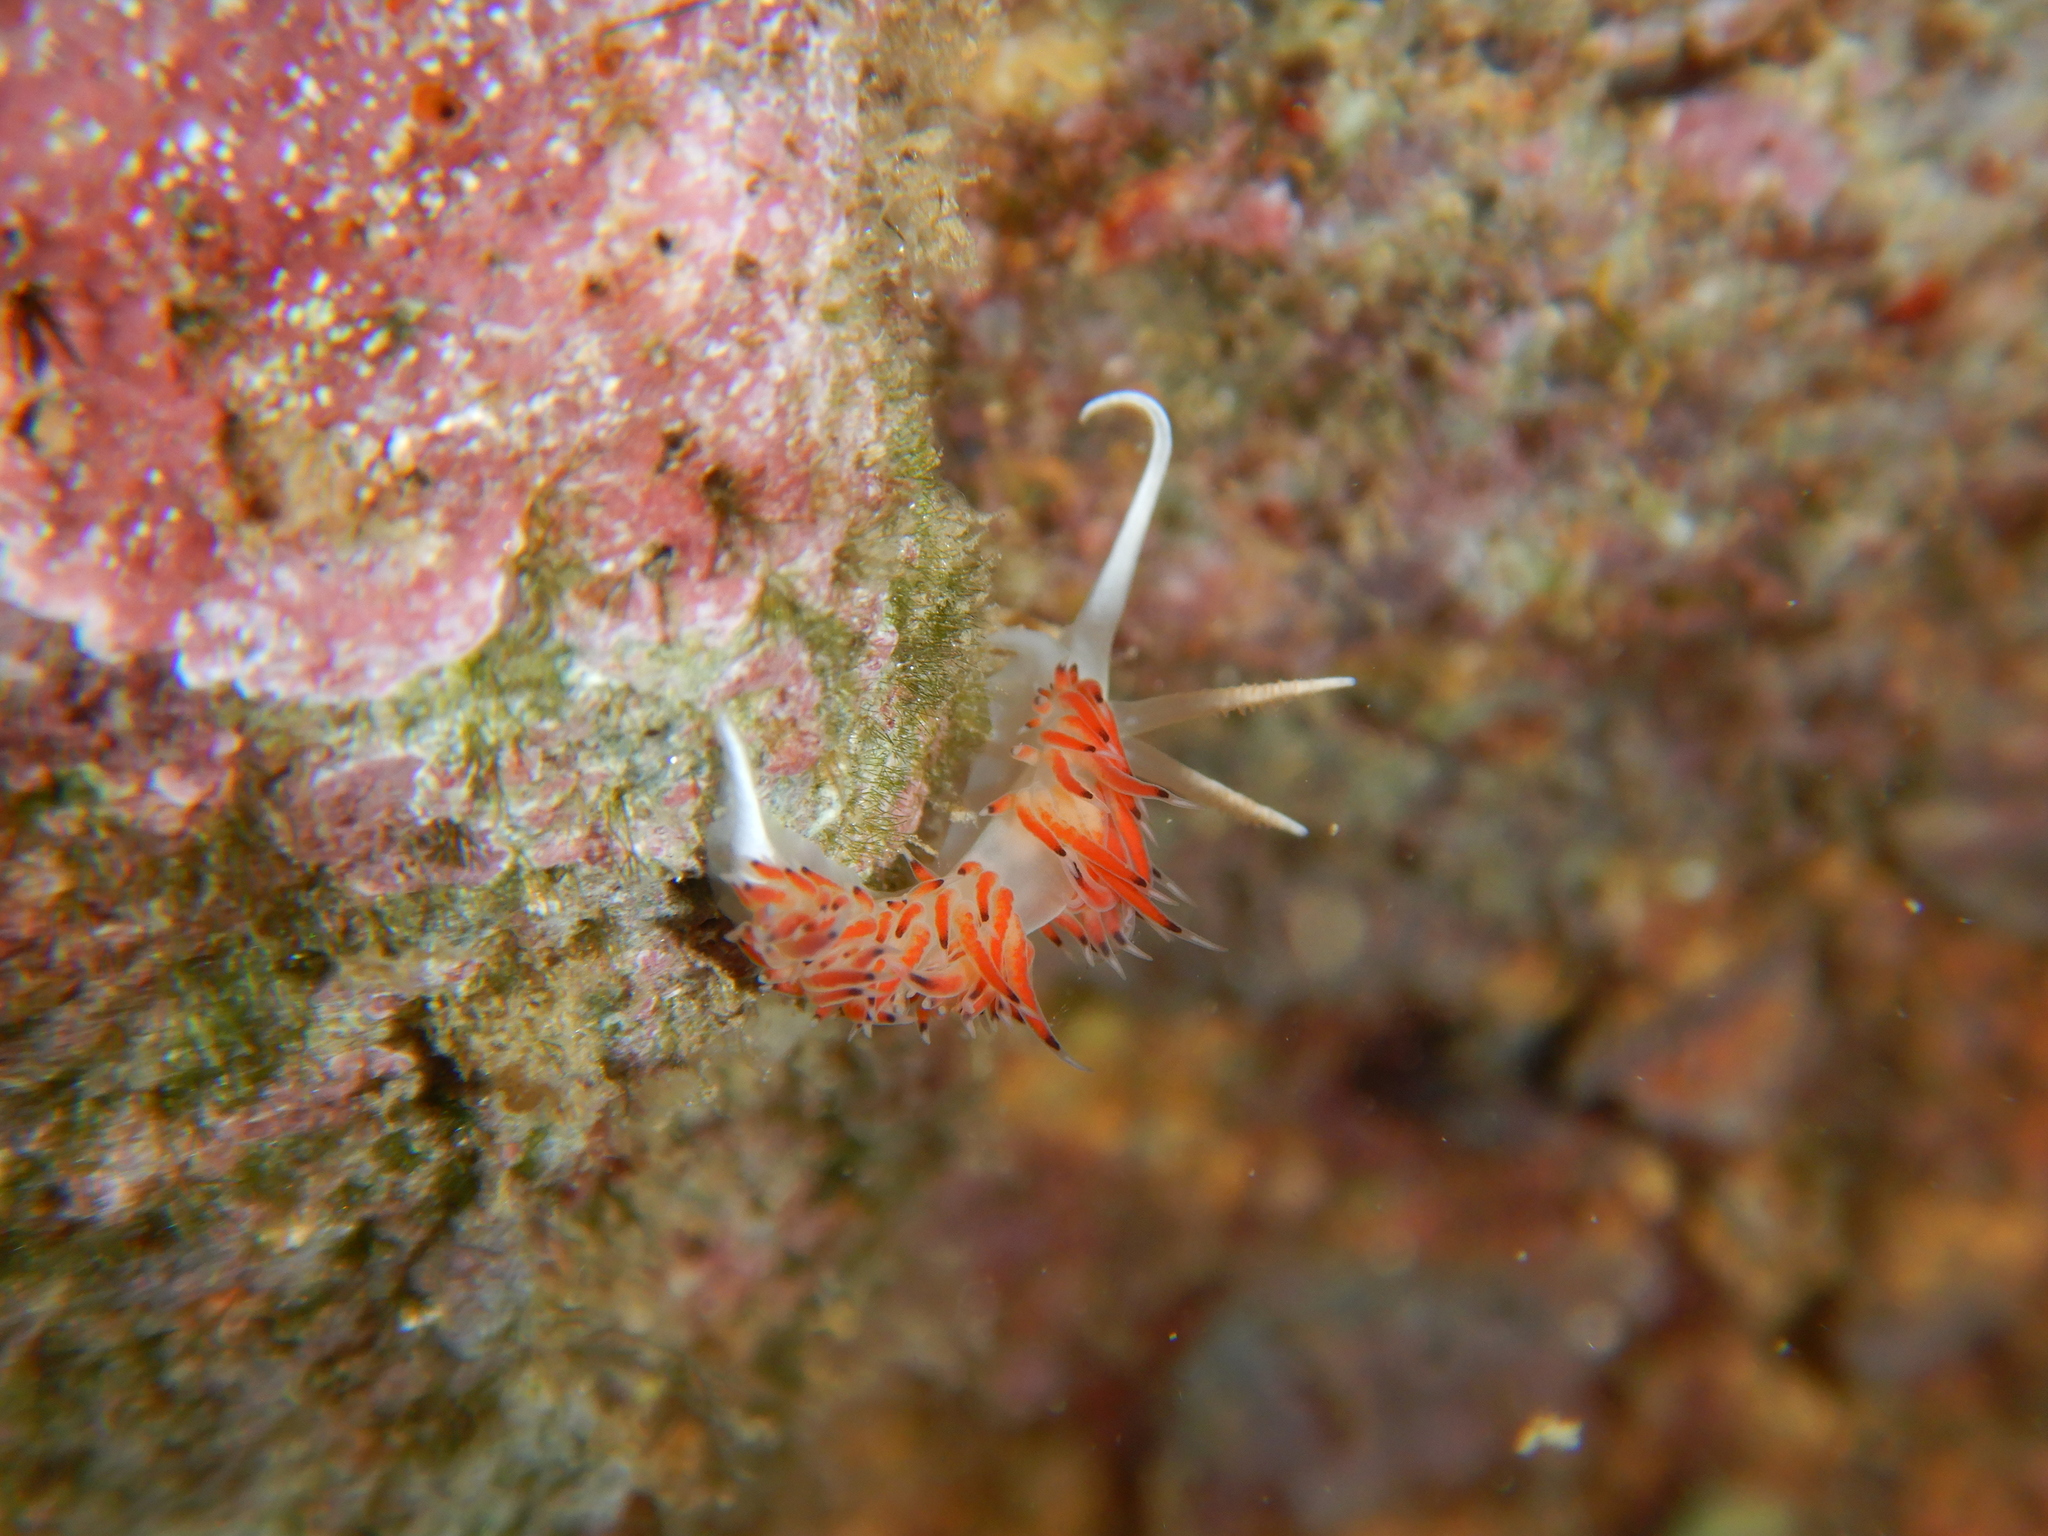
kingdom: Animalia
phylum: Mollusca
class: Gastropoda
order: Nudibranchia
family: Facelinidae
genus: Caloria
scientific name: Caloria quatrefagesi
